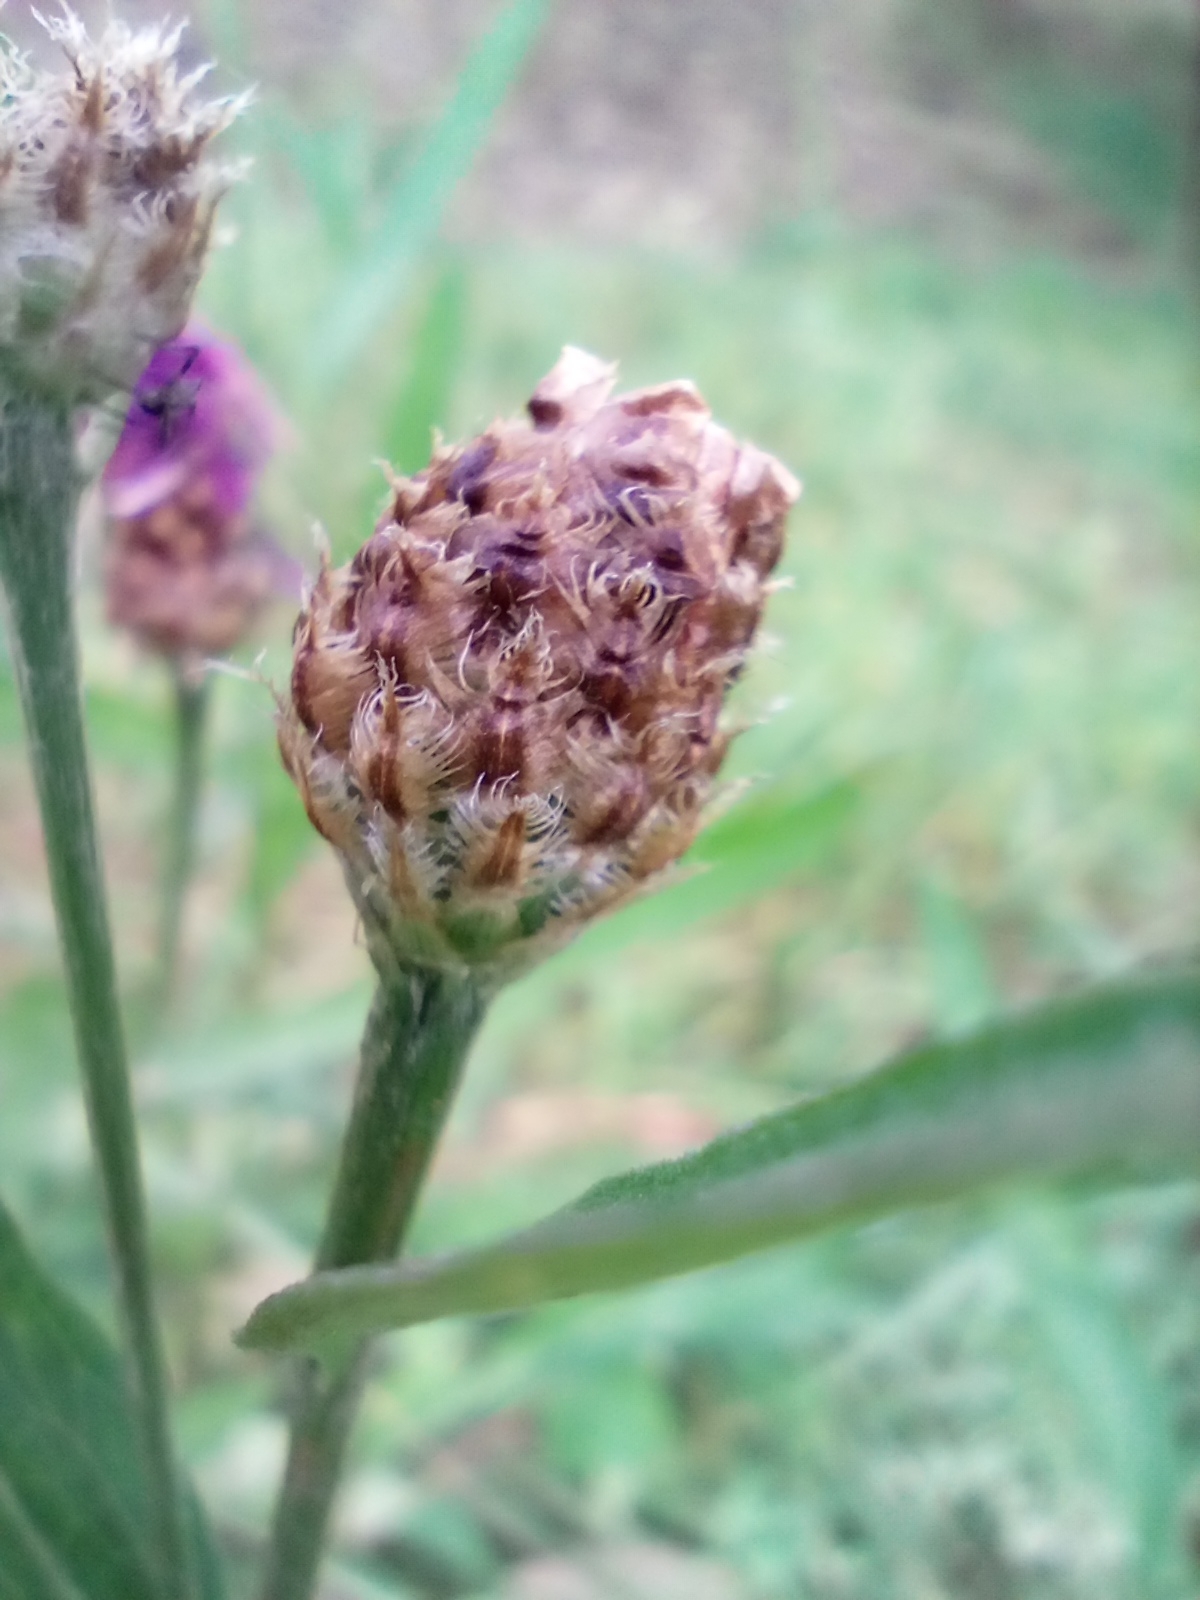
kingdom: Plantae
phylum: Tracheophyta
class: Magnoliopsida
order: Asterales
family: Asteraceae
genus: Centaurea
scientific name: Centaurea jacea
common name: Brown knapweed
